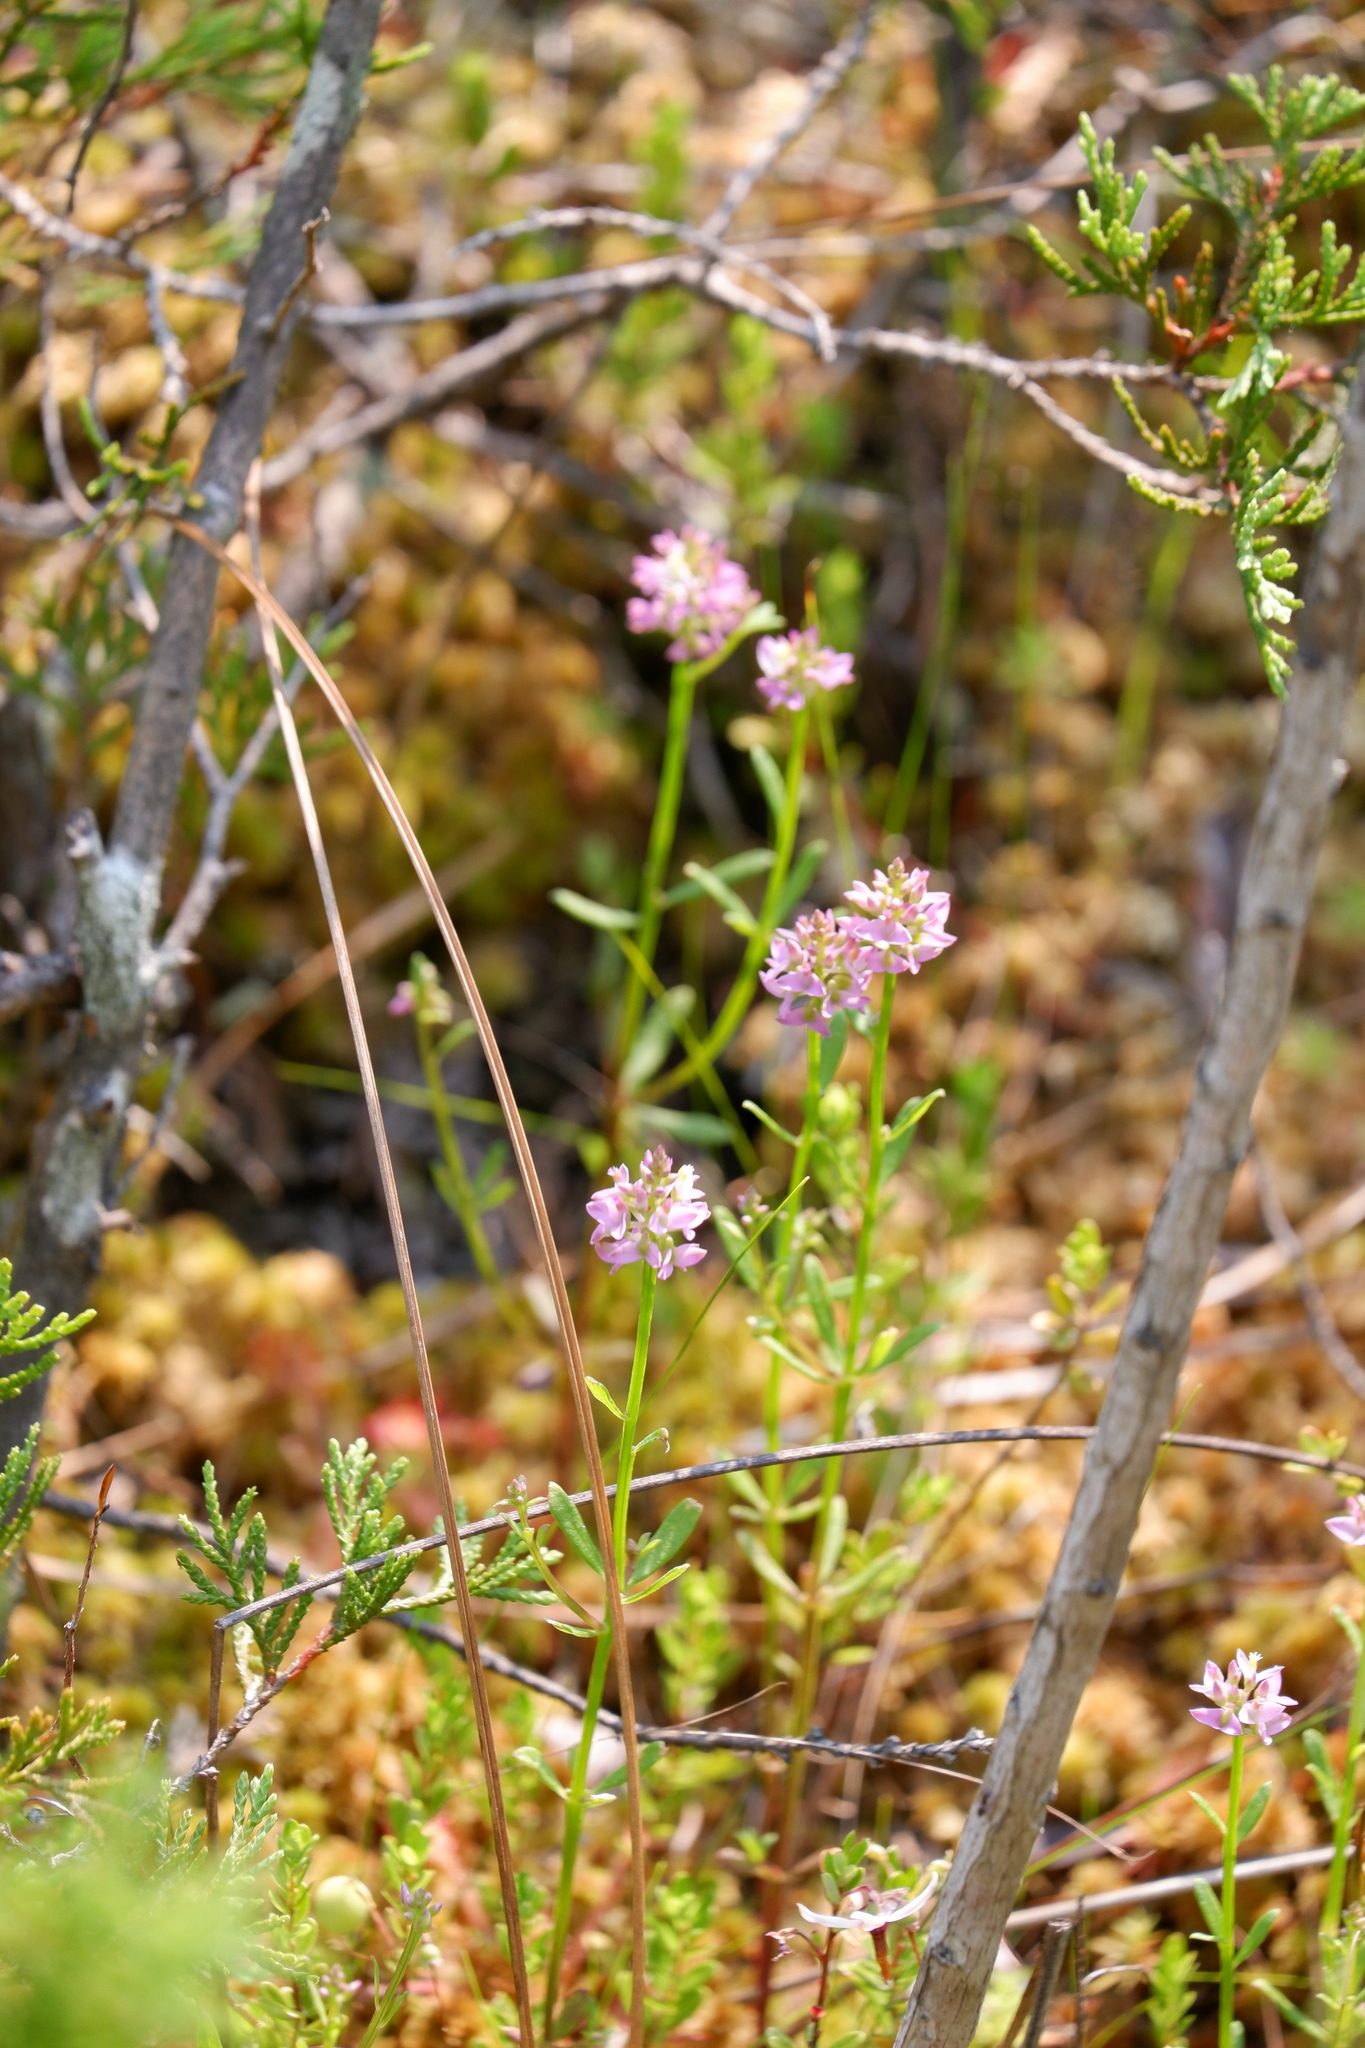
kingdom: Plantae
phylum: Tracheophyta
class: Magnoliopsida
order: Fabales
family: Polygalaceae
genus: Polygala
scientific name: Polygala brevifolia
